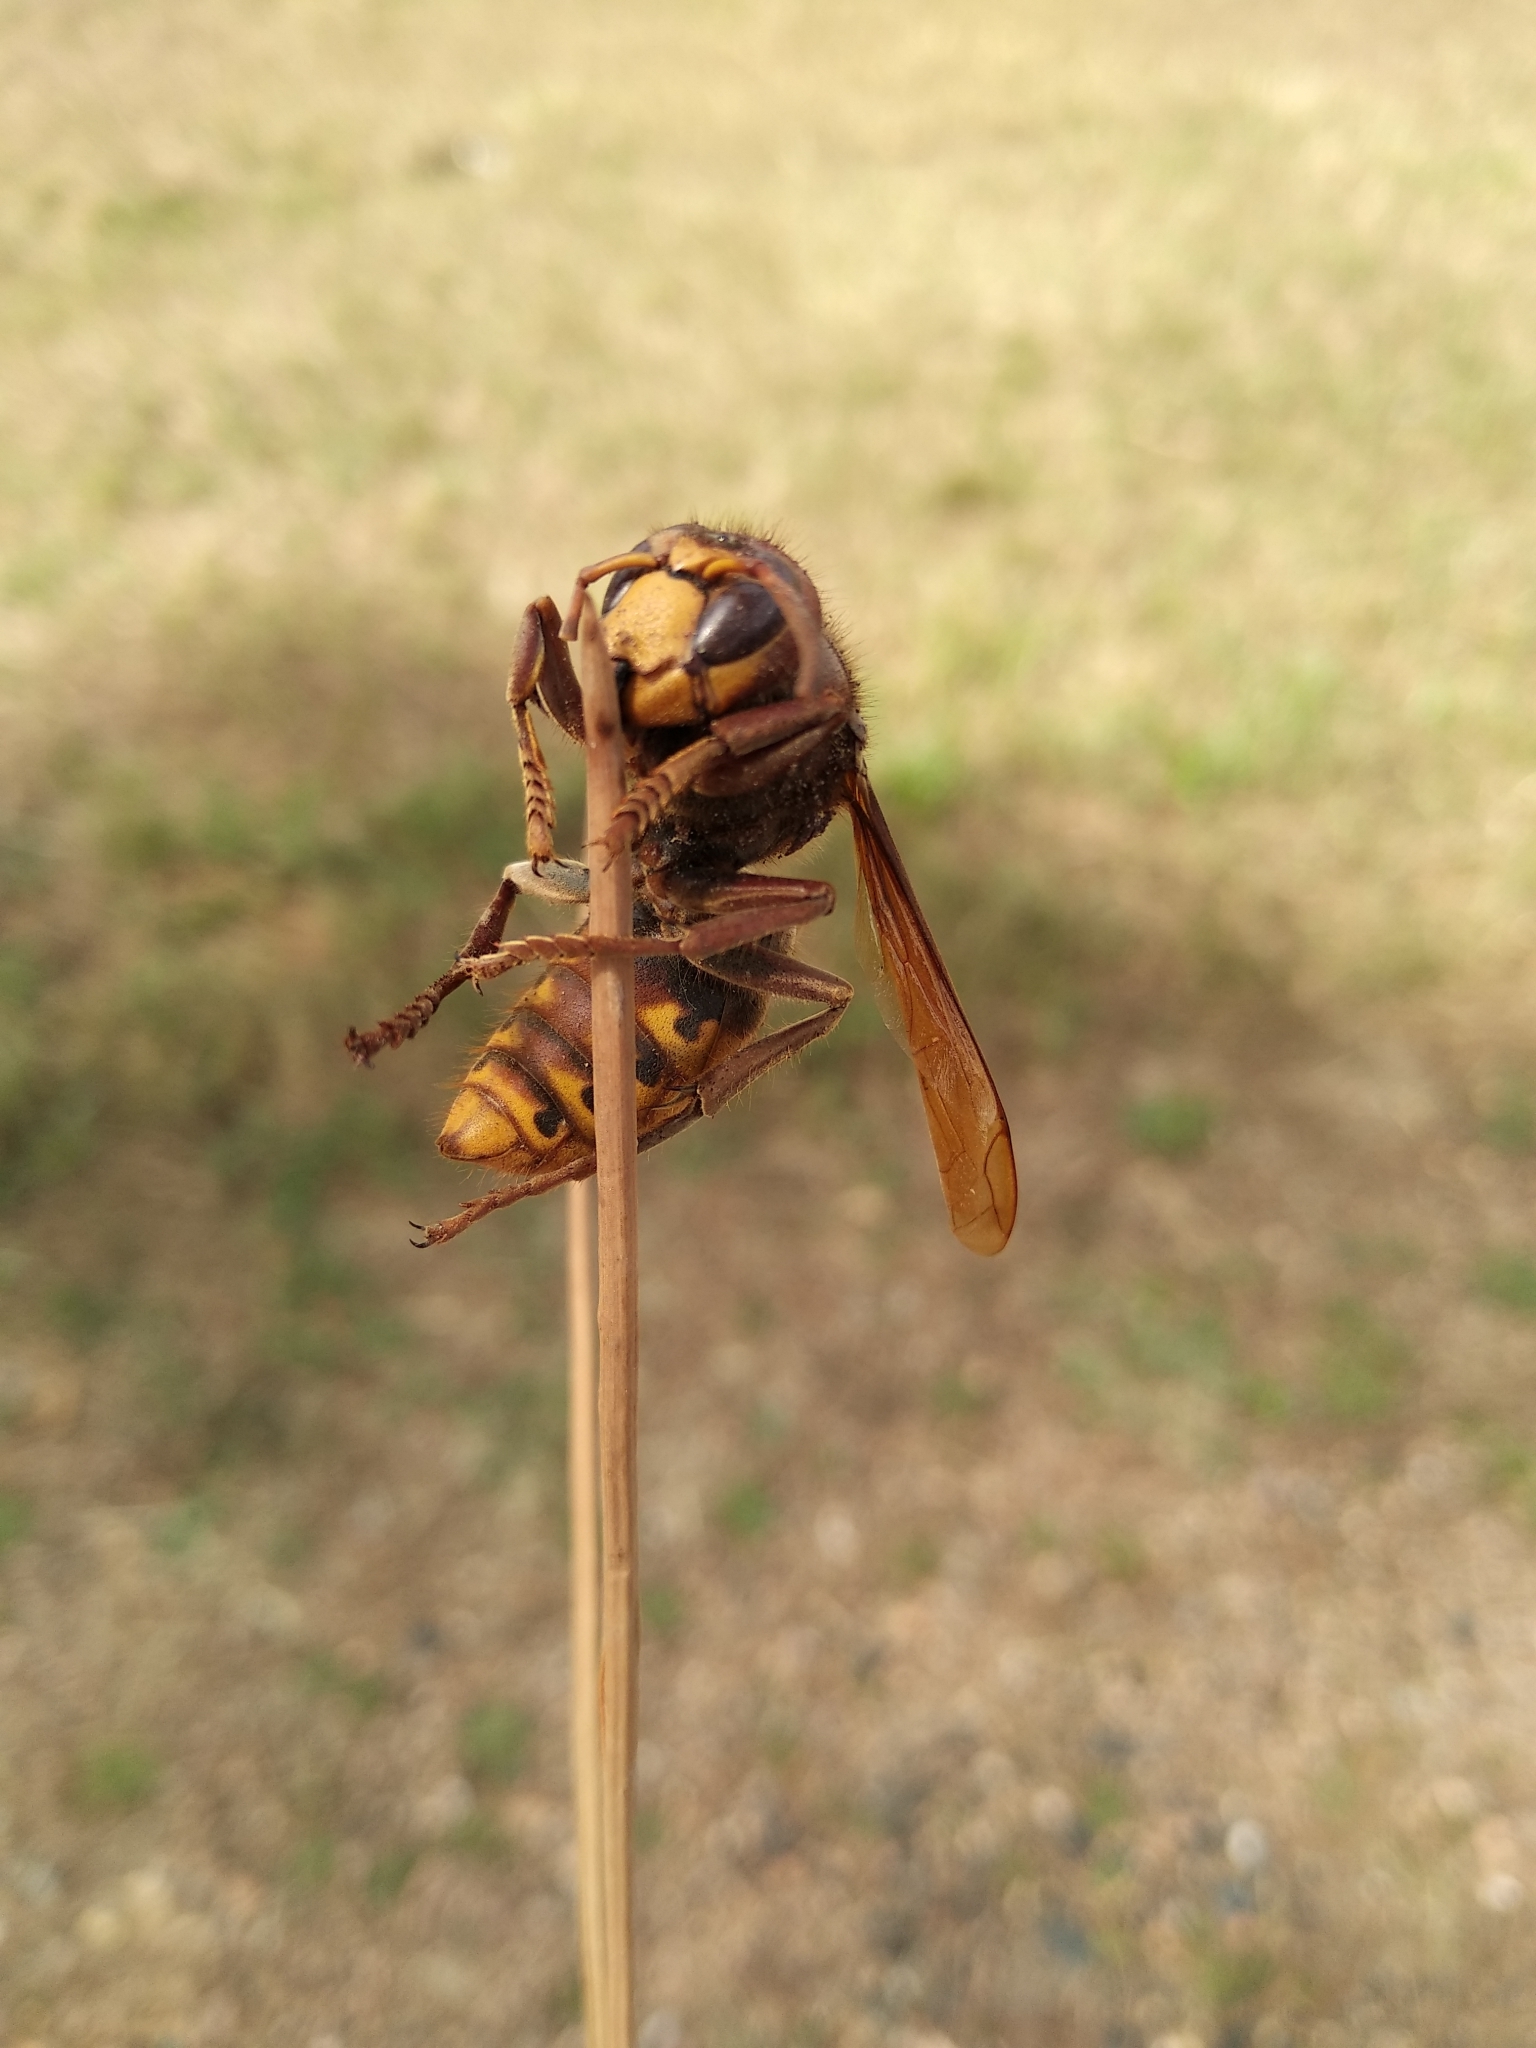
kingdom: Animalia
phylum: Arthropoda
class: Insecta
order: Hymenoptera
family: Vespidae
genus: Vespa
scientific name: Vespa crabro
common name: Hornet
